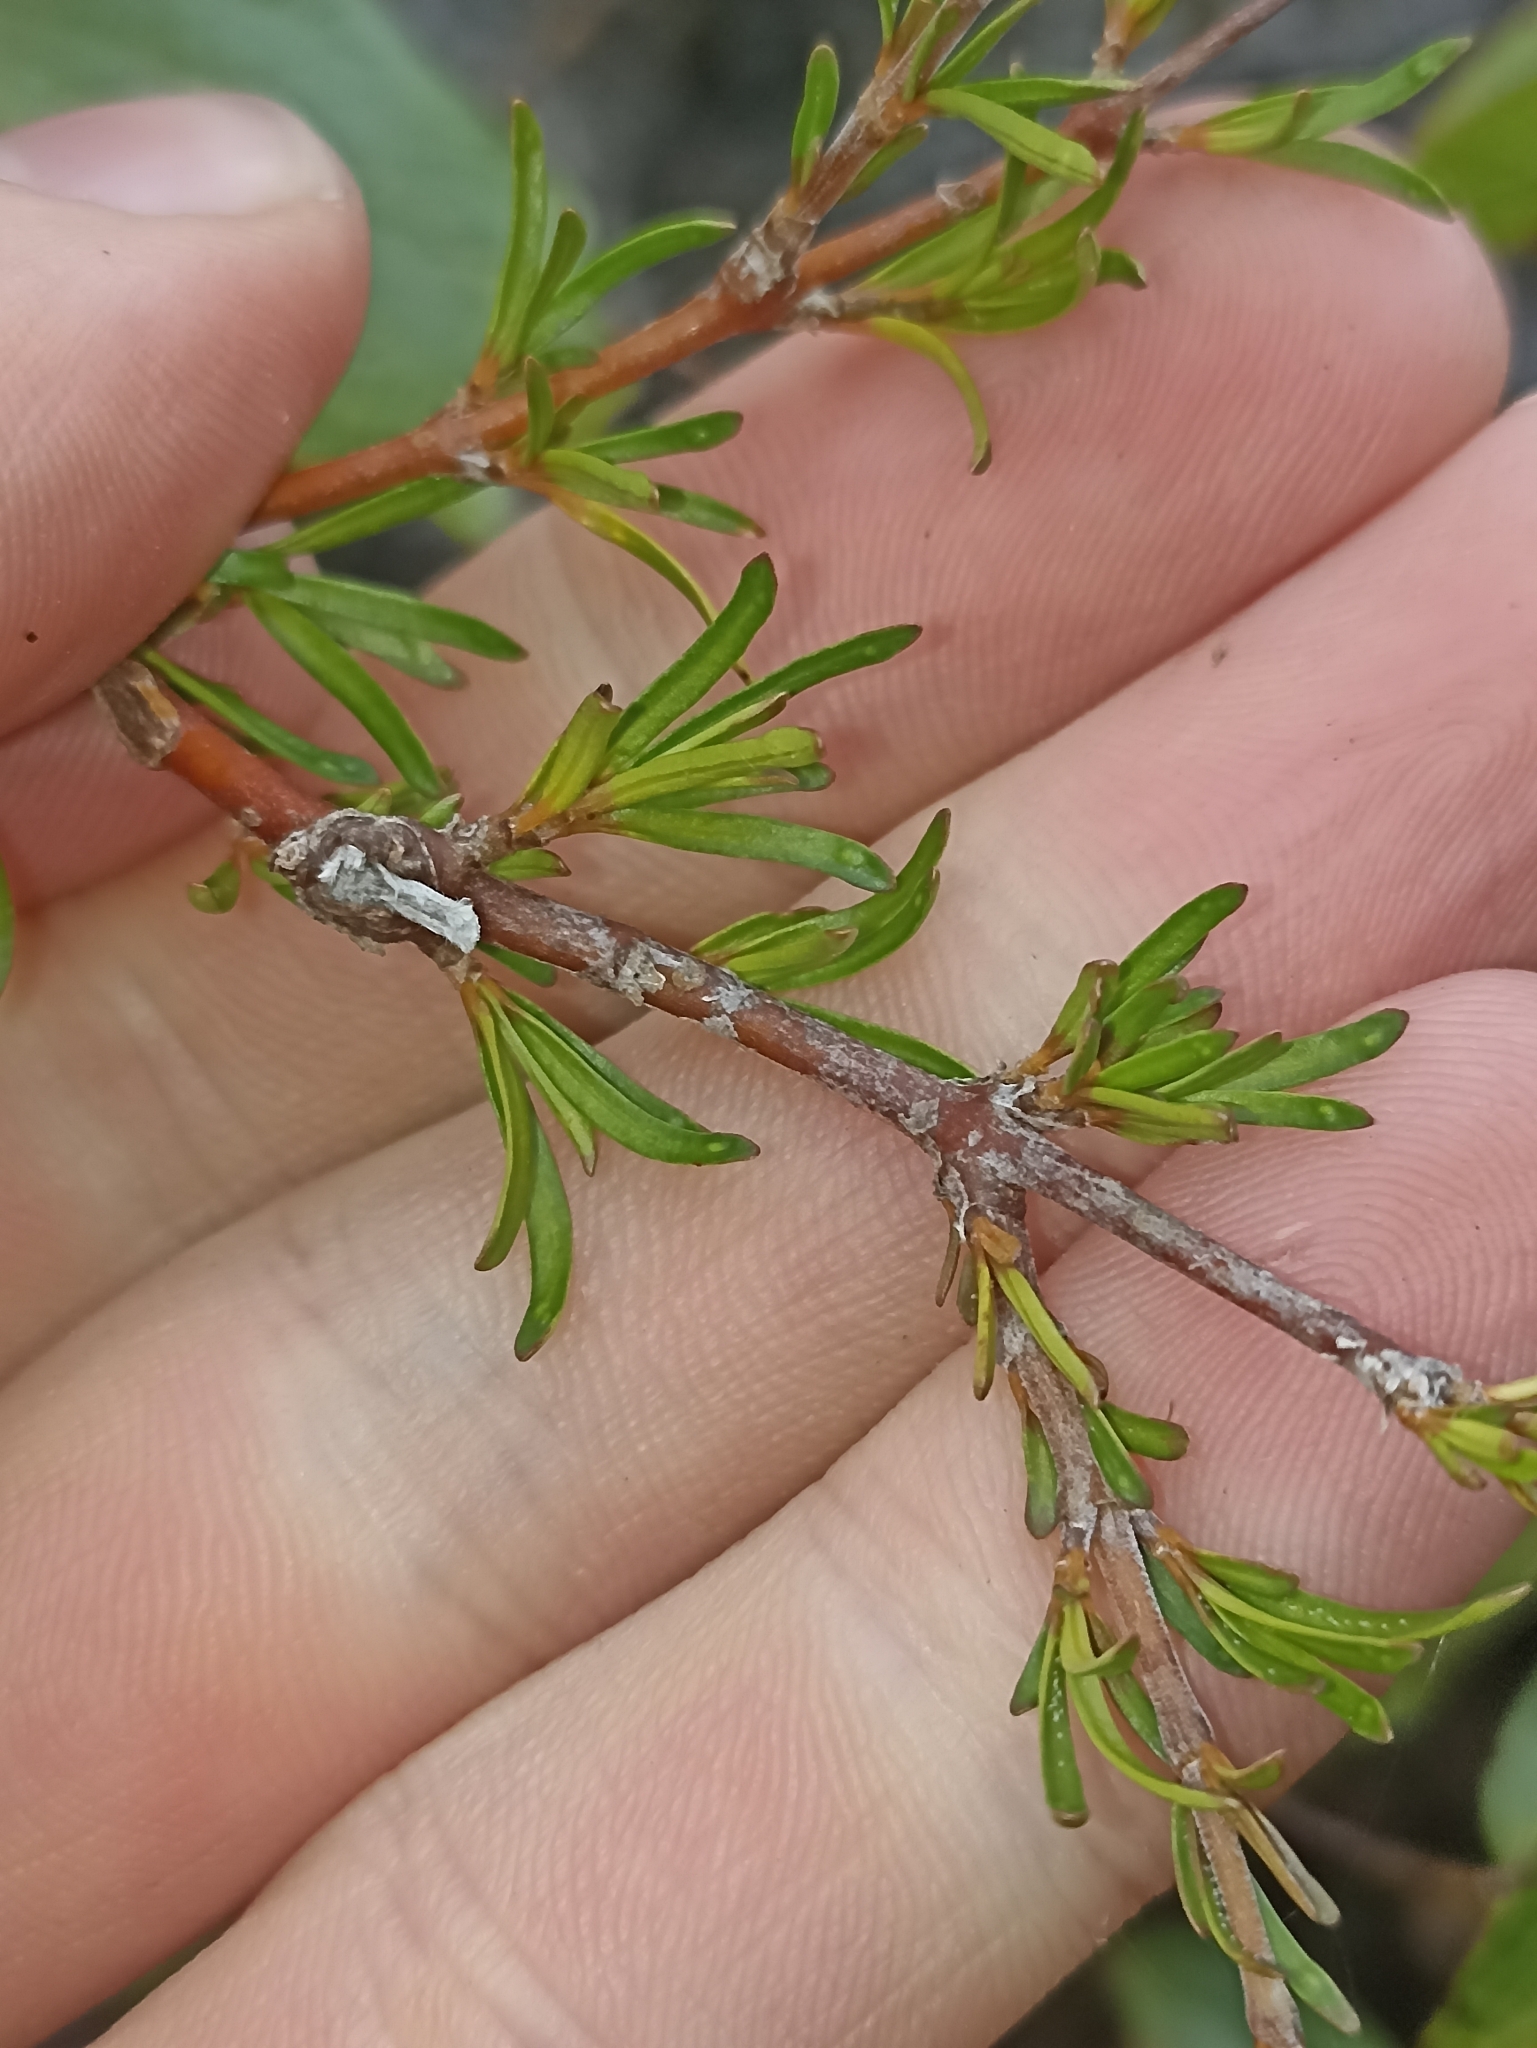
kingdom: Plantae
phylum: Tracheophyta
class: Magnoliopsida
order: Gentianales
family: Rubiaceae
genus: Coprosma
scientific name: Coprosma rugosa
